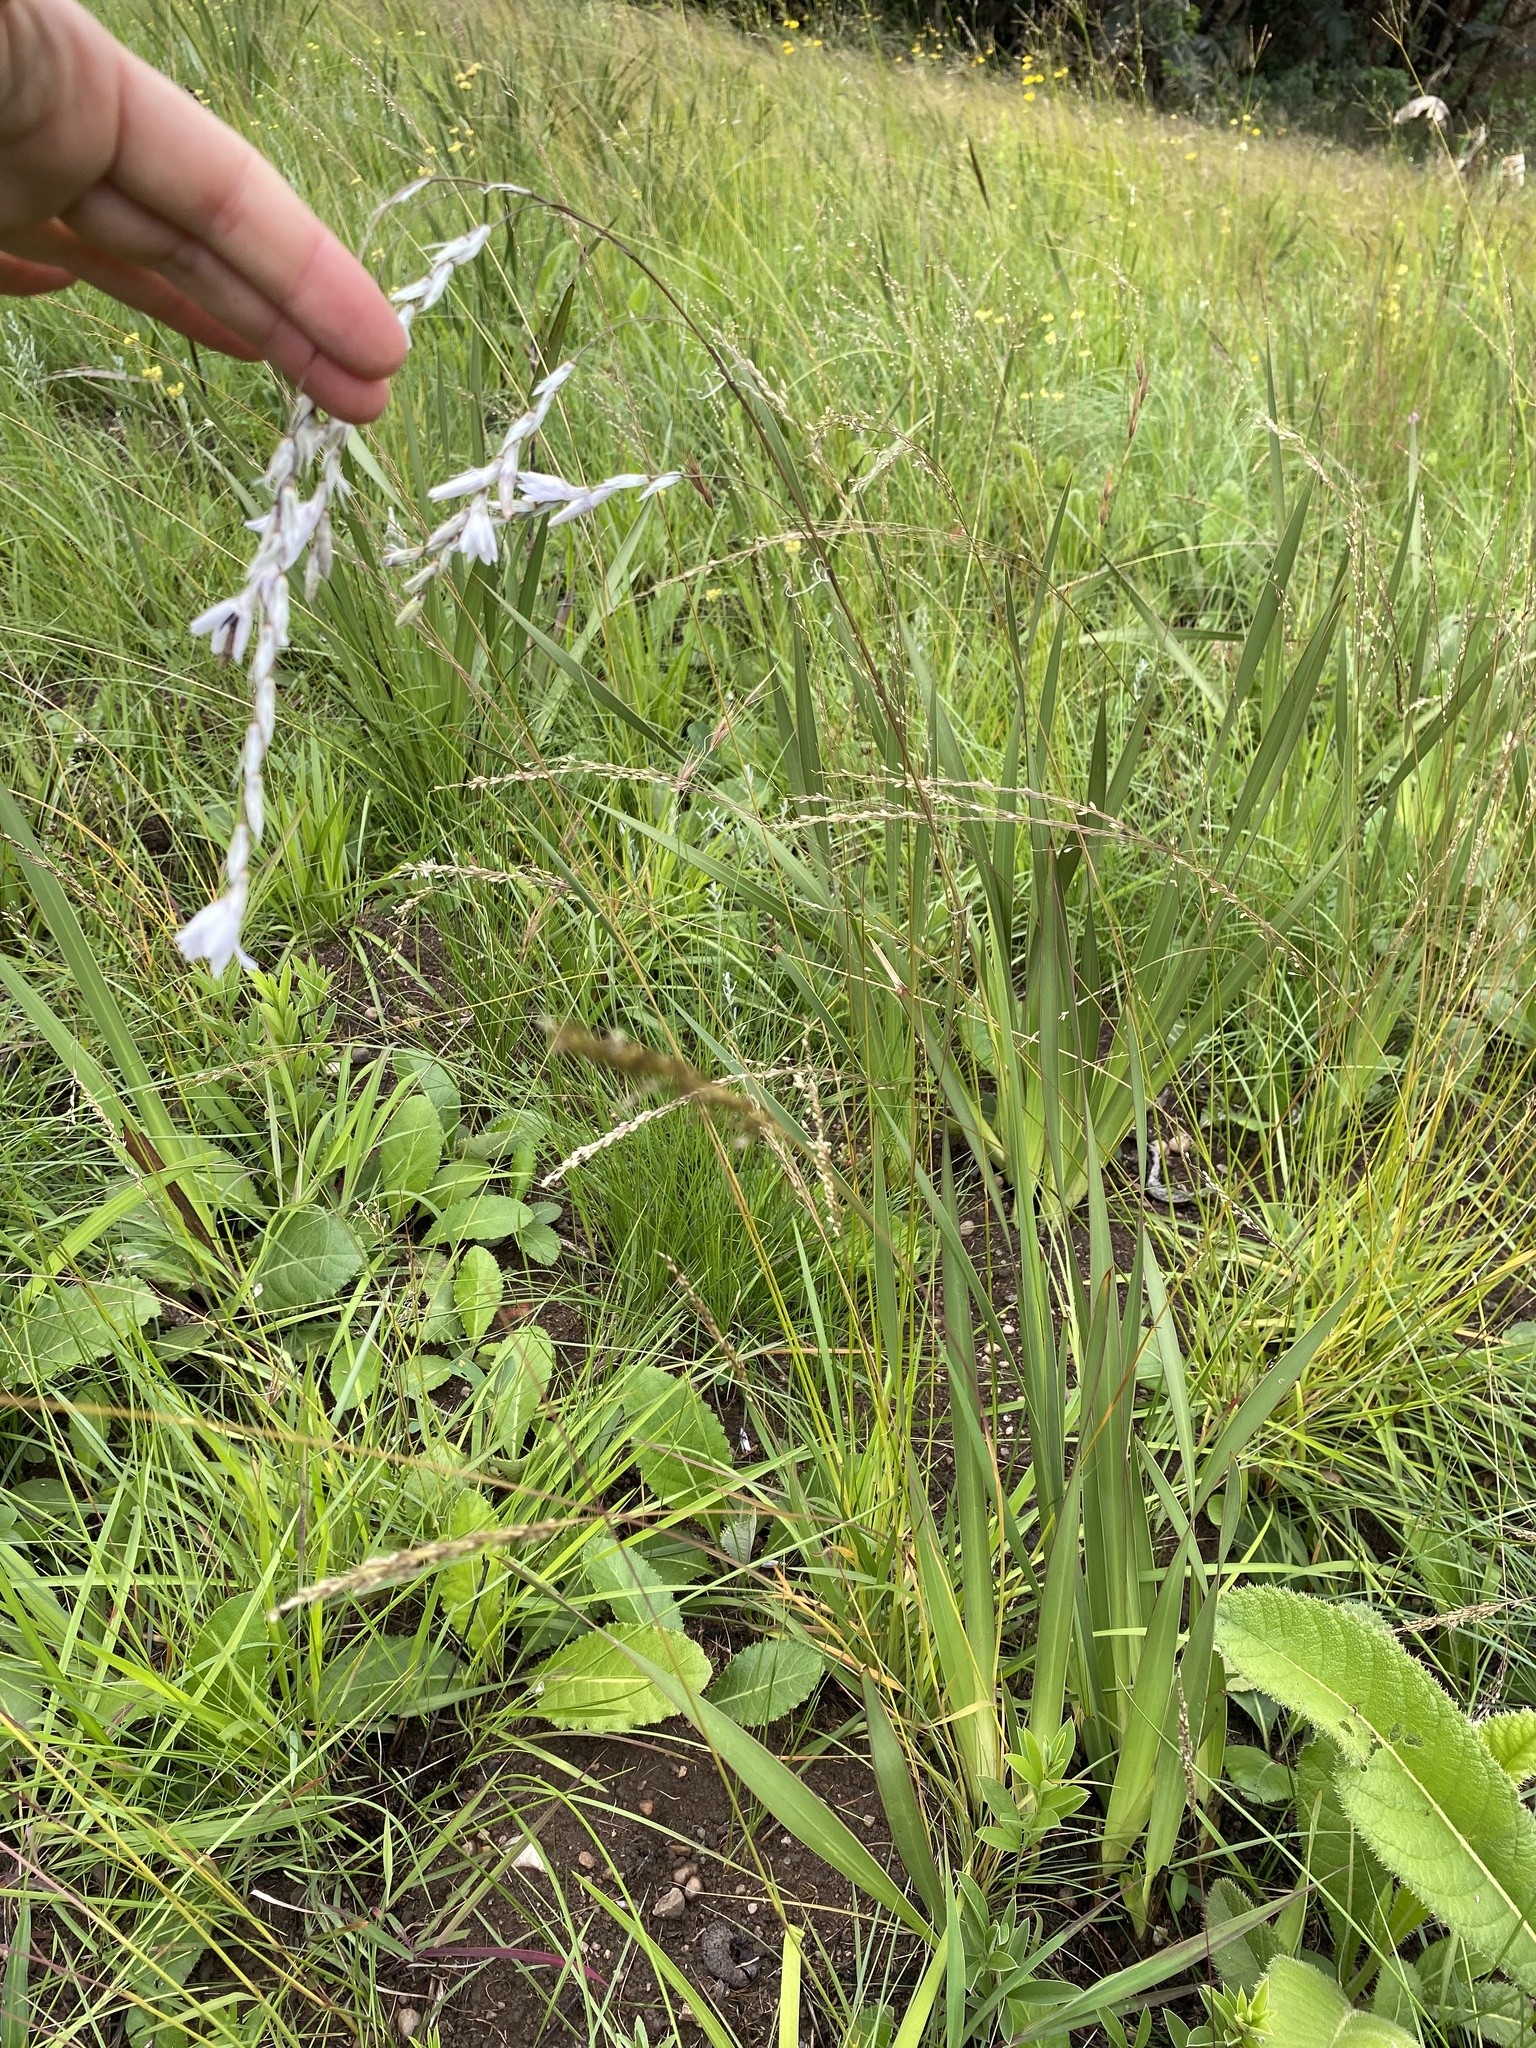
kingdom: Plantae
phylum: Tracheophyta
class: Liliopsida
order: Asparagales
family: Iridaceae
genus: Dierama
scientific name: Dierama igneum
